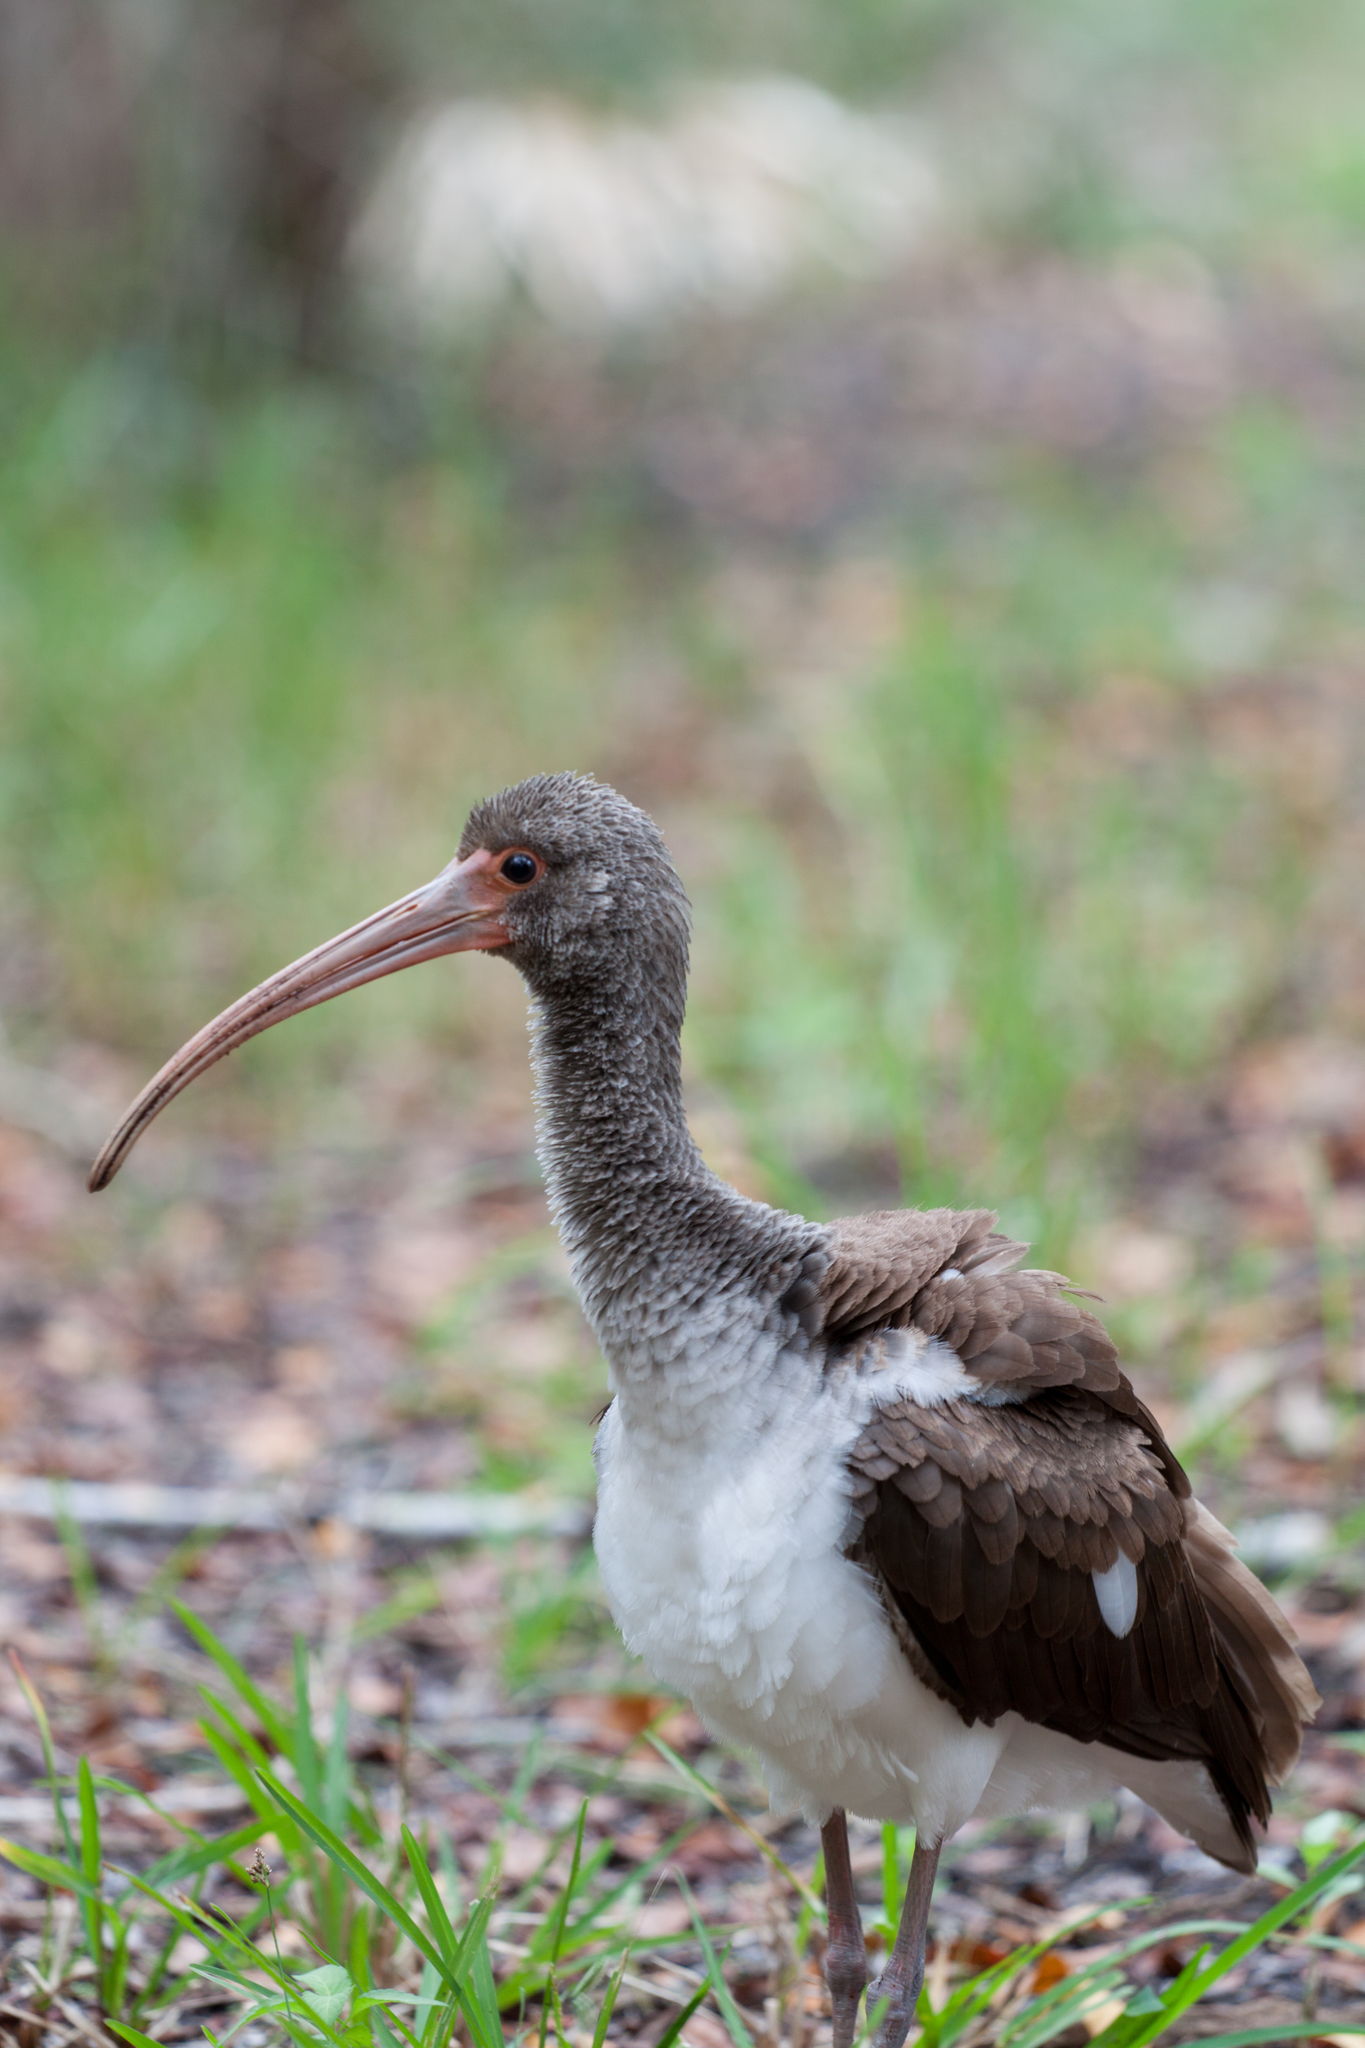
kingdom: Animalia
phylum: Chordata
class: Aves
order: Pelecaniformes
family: Threskiornithidae
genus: Eudocimus
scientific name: Eudocimus albus
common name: White ibis
